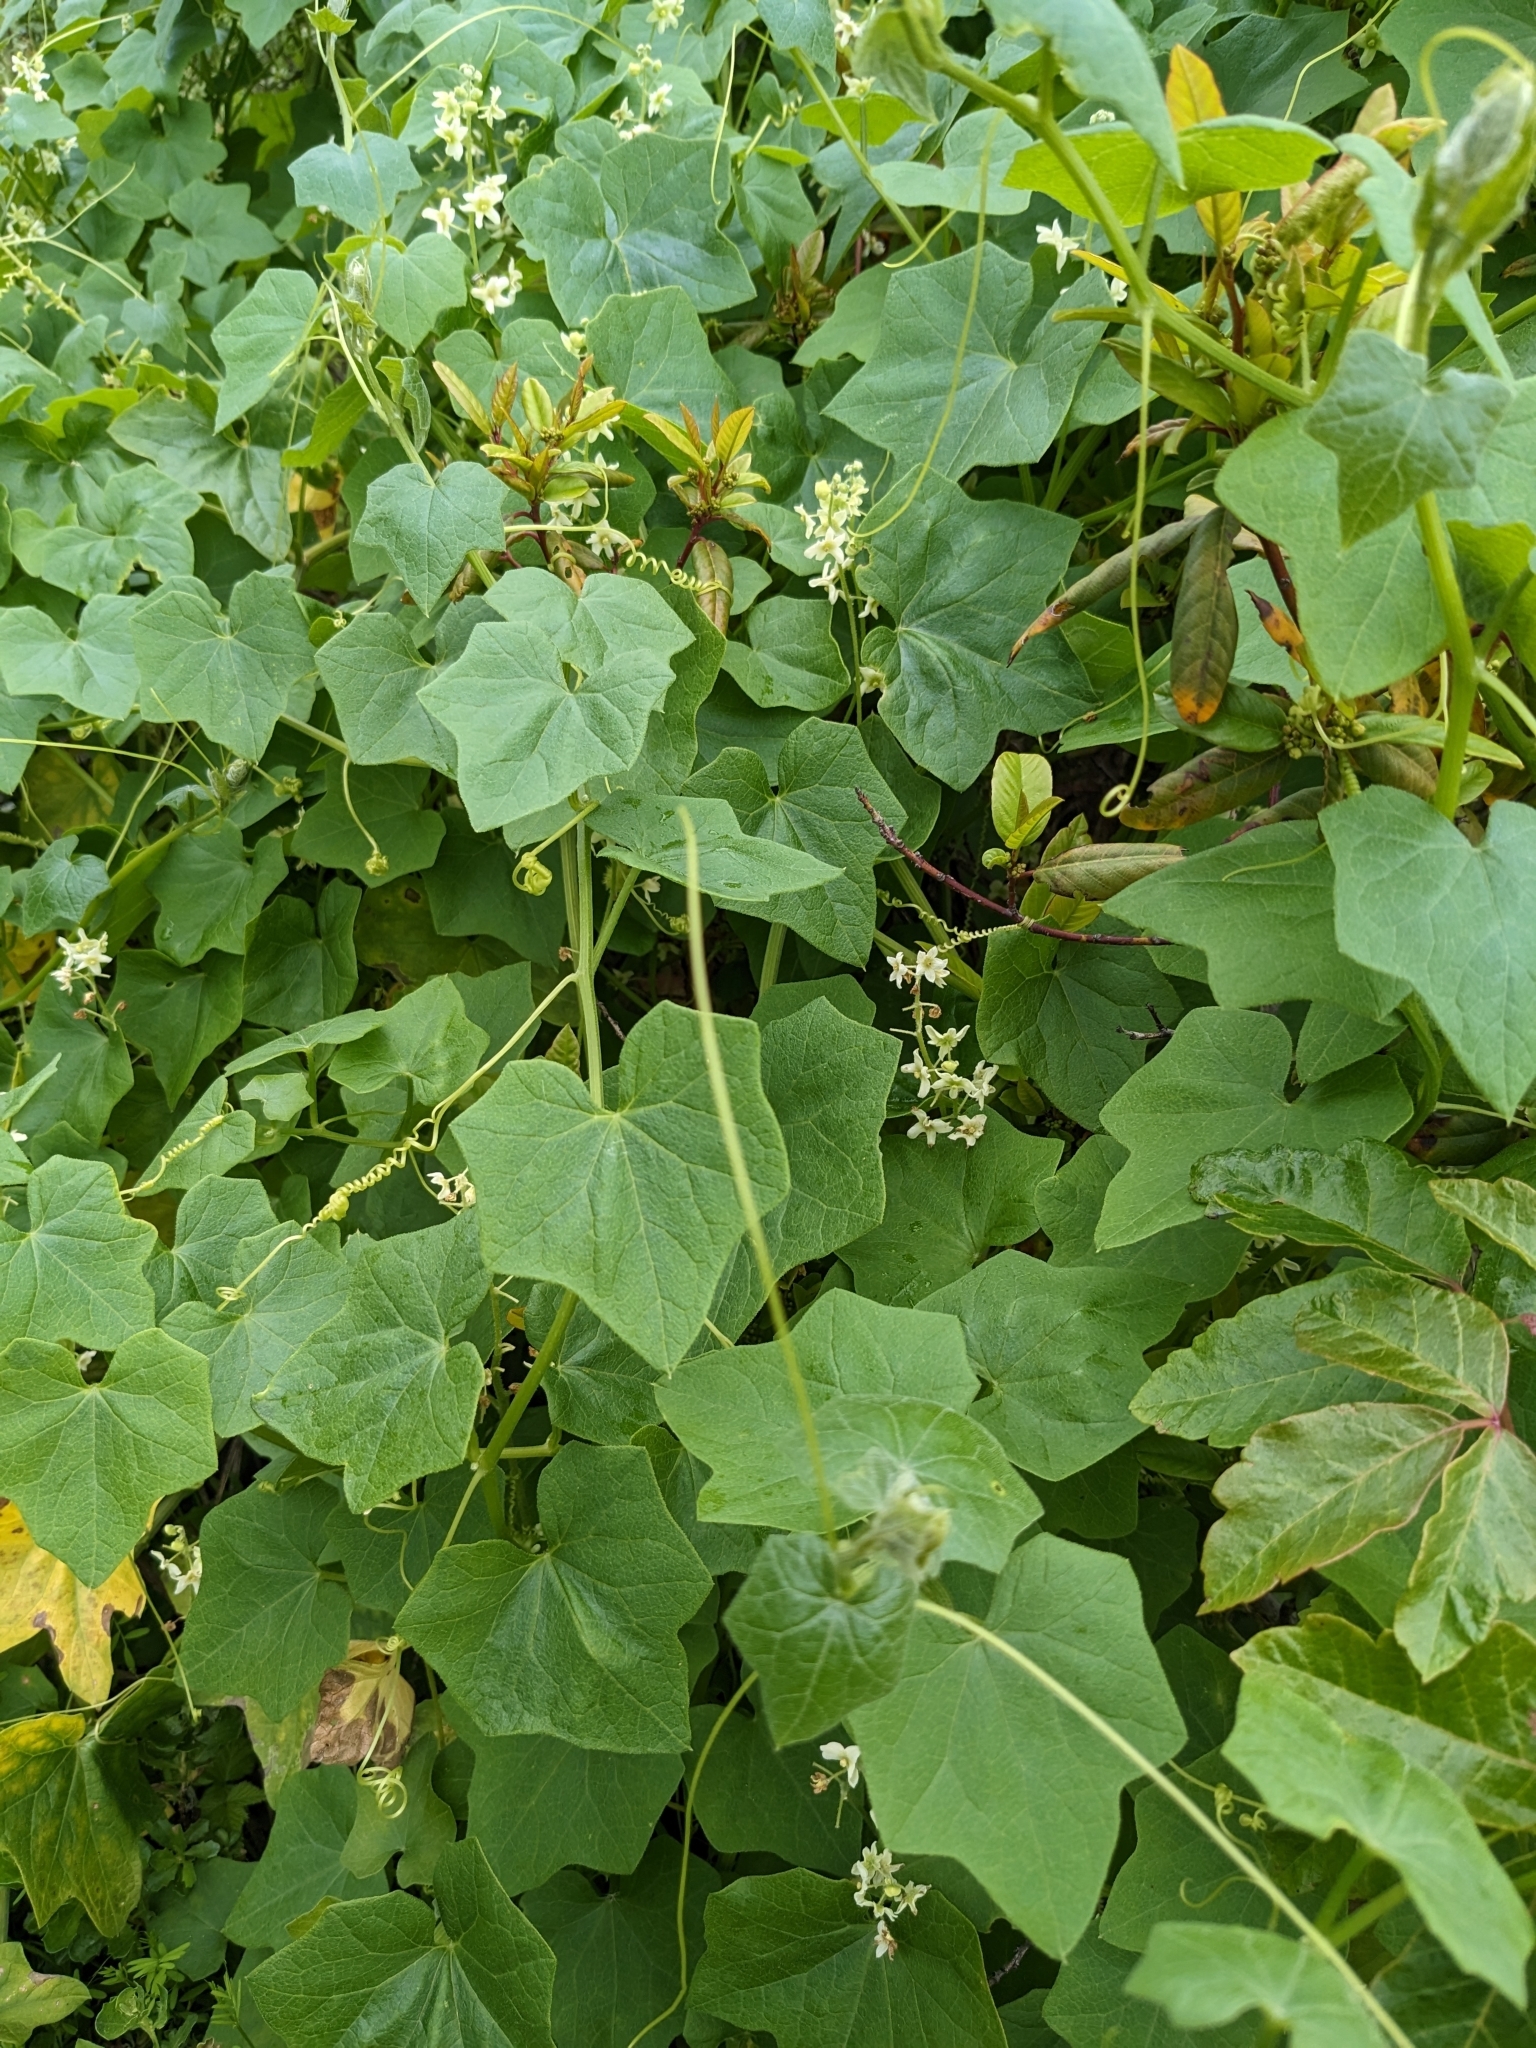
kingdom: Plantae
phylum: Tracheophyta
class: Magnoliopsida
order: Cucurbitales
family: Cucurbitaceae
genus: Marah
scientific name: Marah fabacea
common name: California manroot
